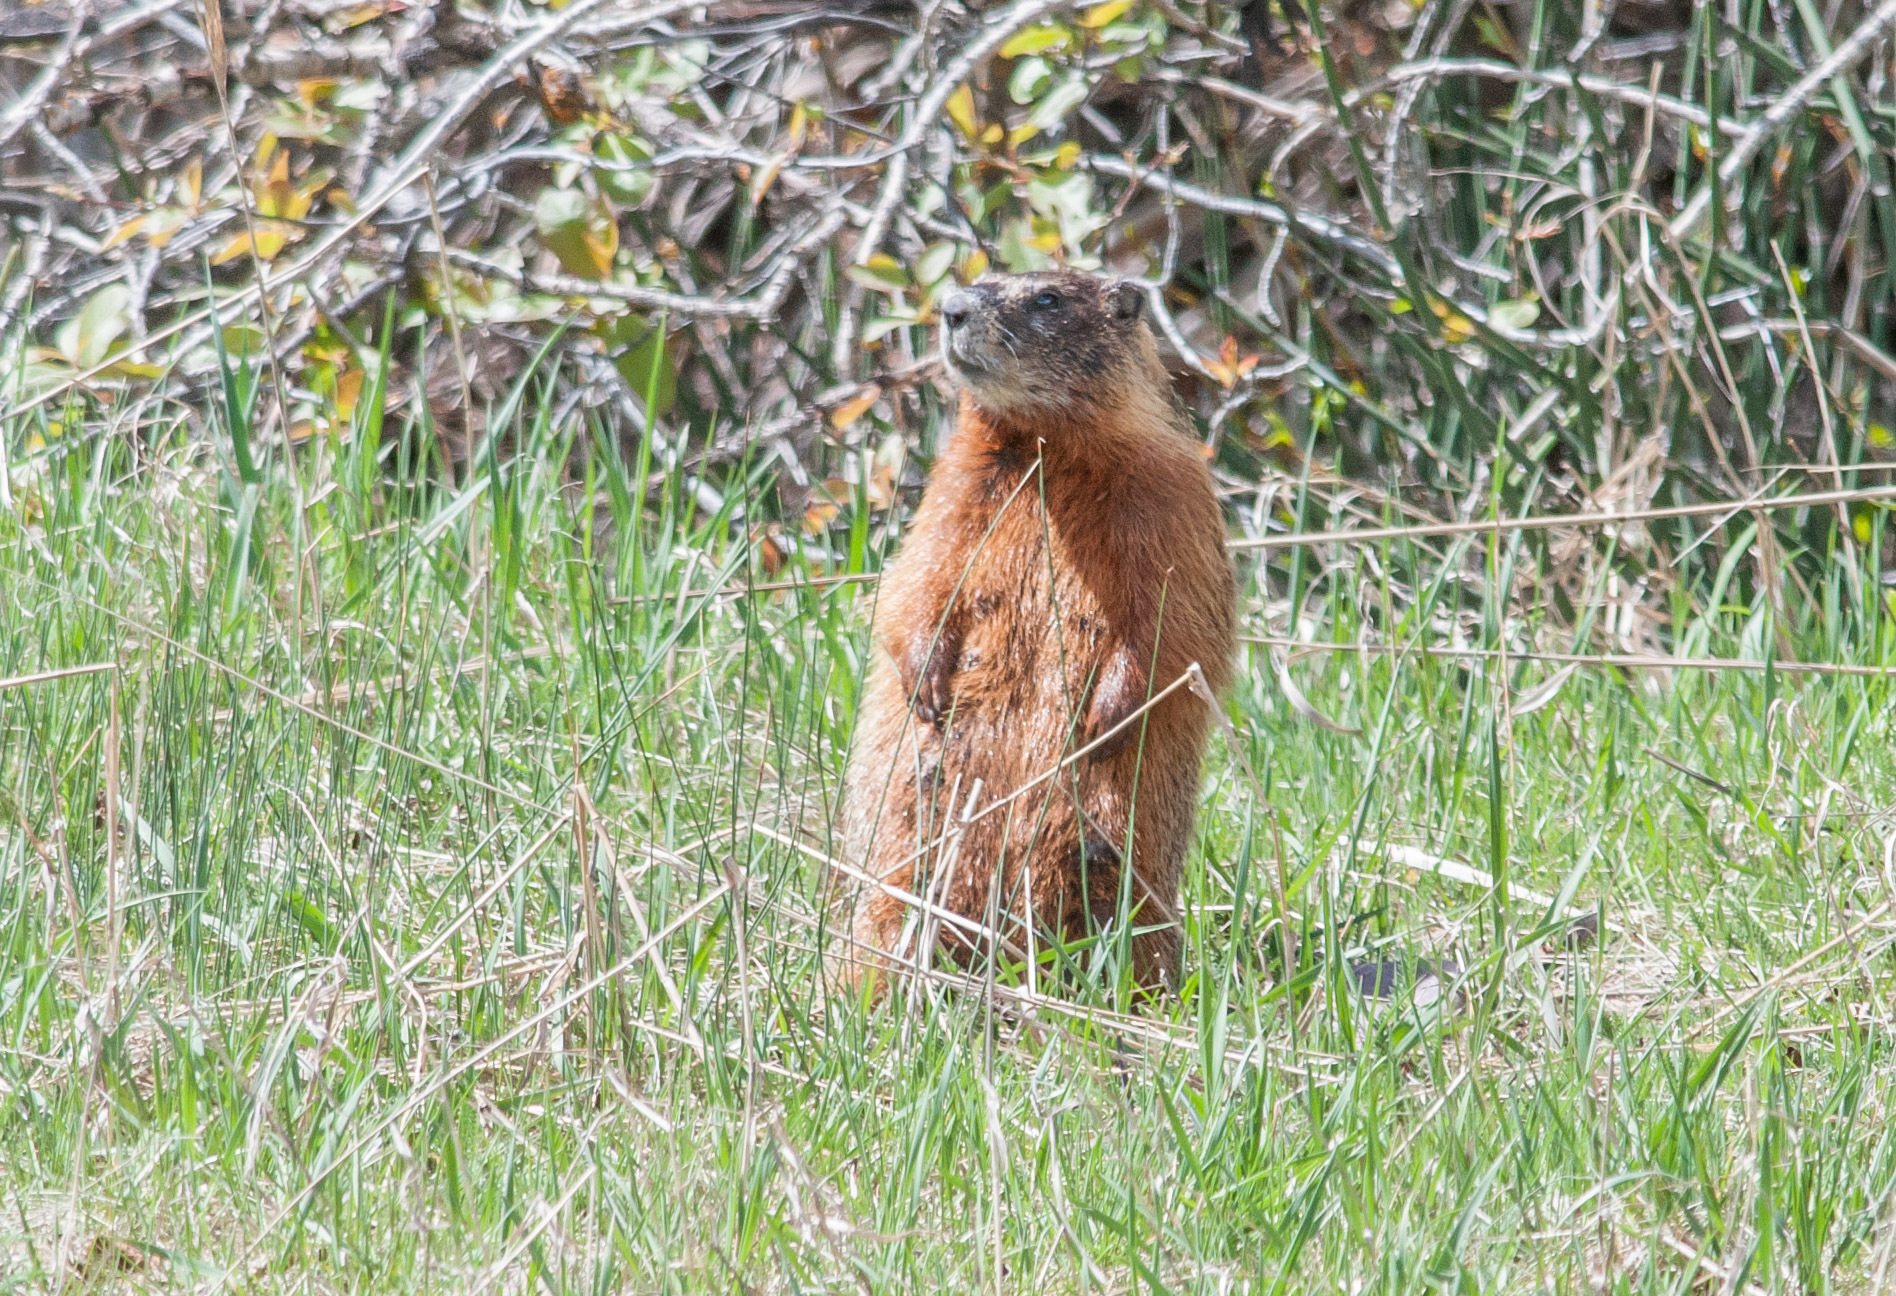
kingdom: Animalia
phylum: Chordata
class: Mammalia
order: Rodentia
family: Sciuridae
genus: Marmota
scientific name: Marmota flaviventris
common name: Yellow-bellied marmot
